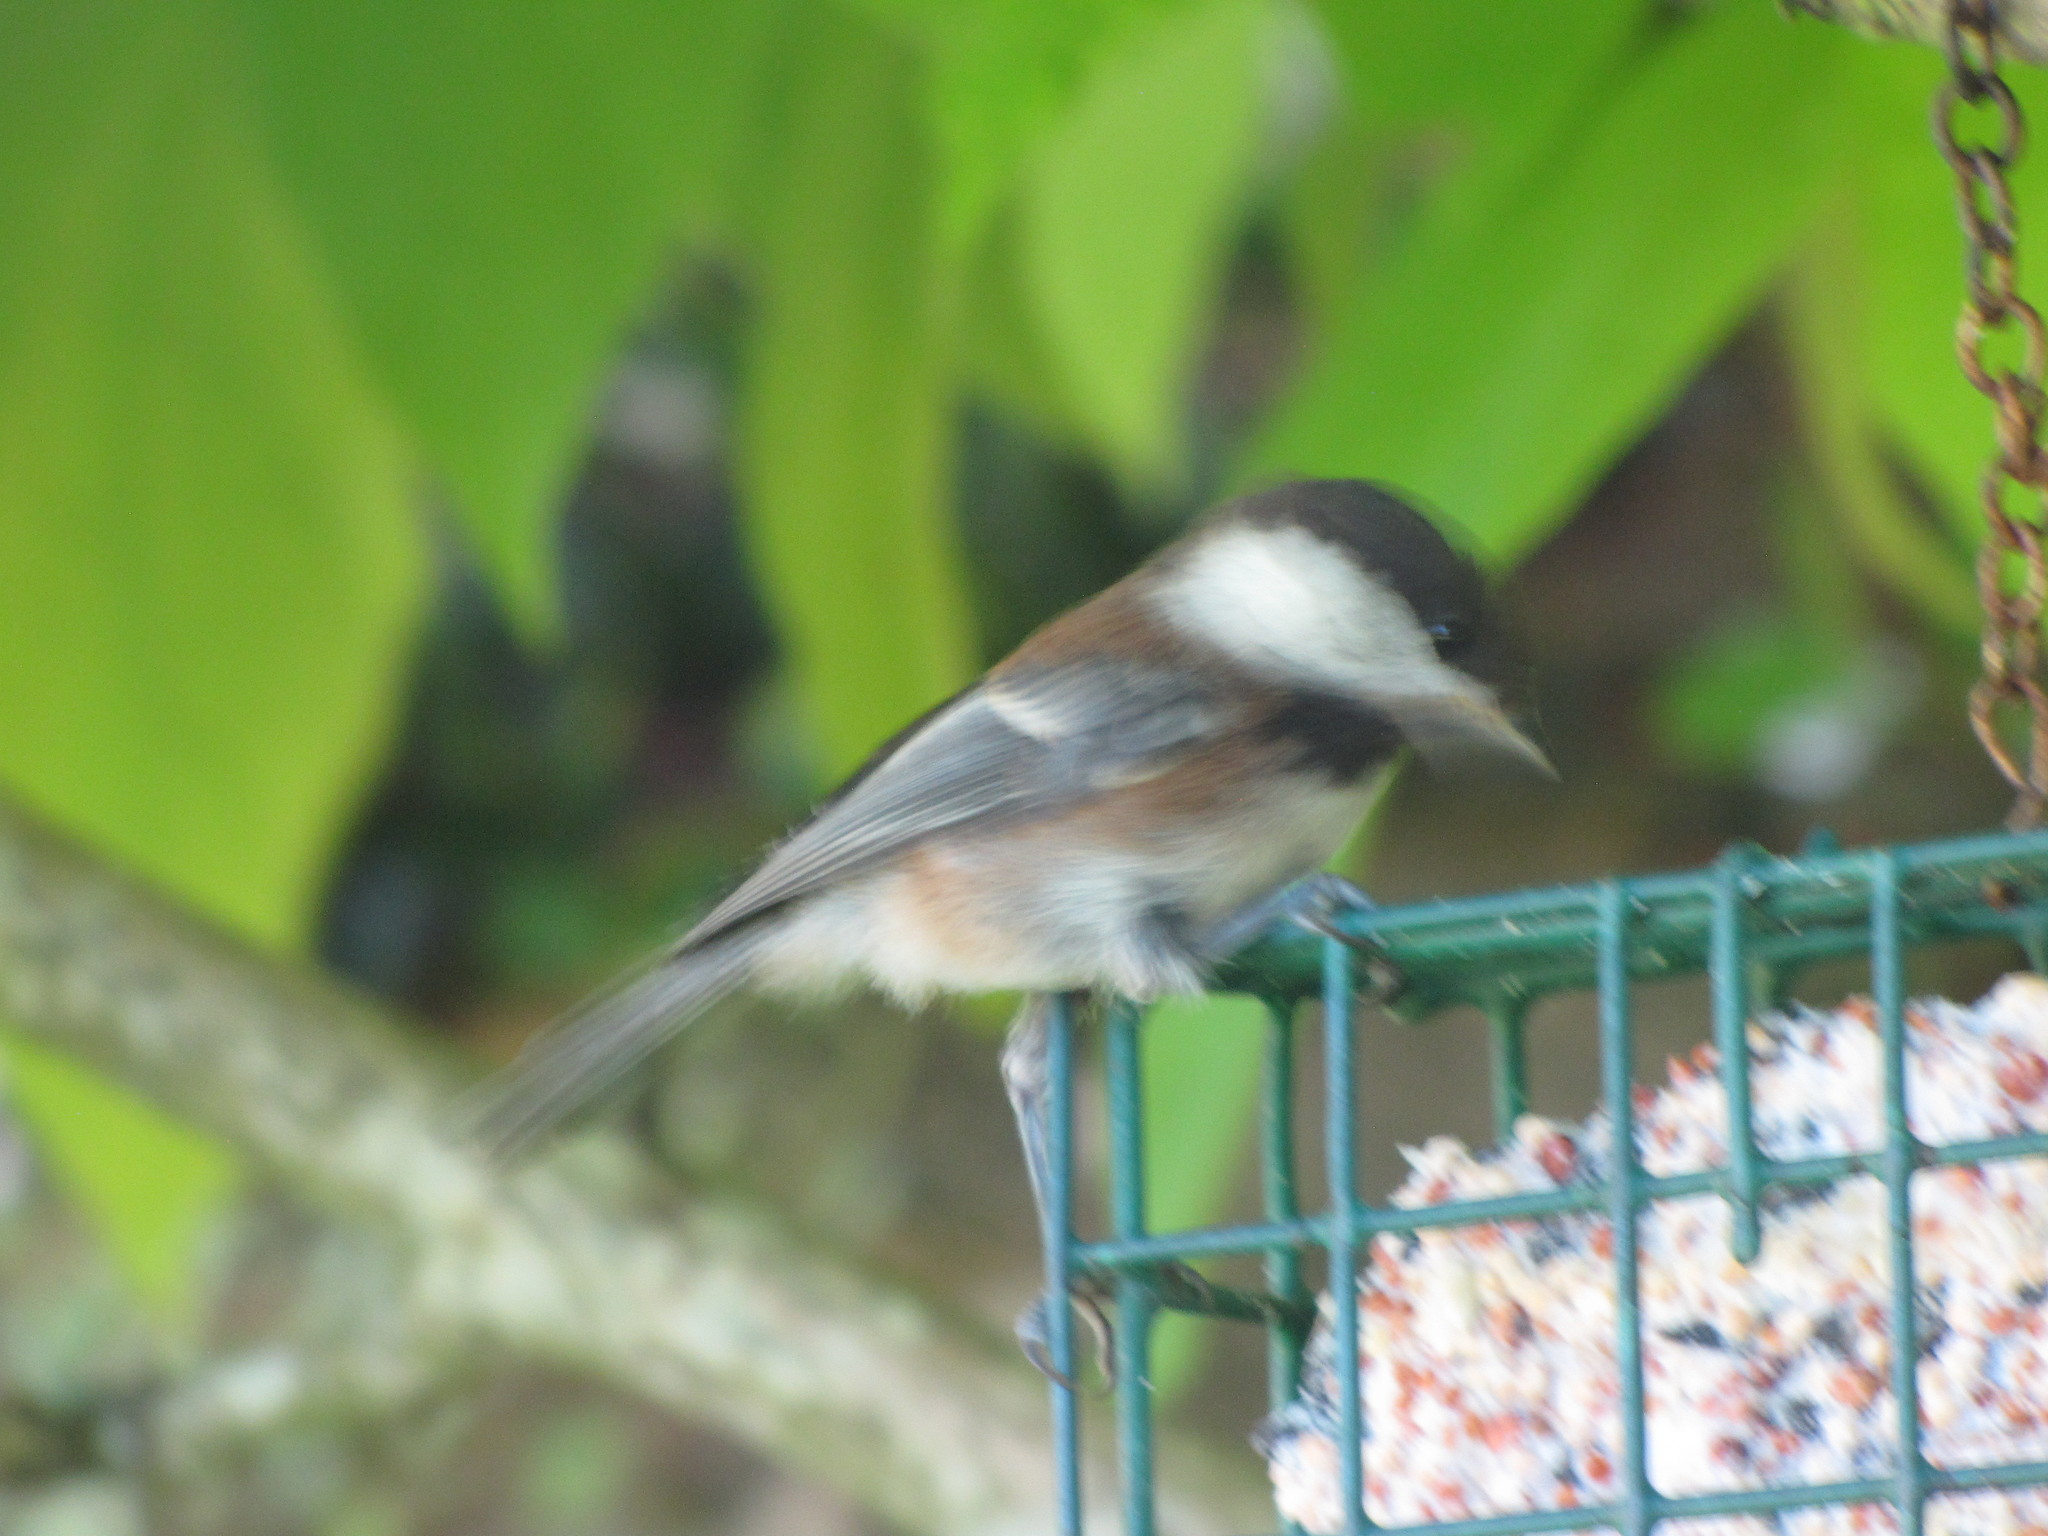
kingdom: Animalia
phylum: Chordata
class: Aves
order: Passeriformes
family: Paridae
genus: Poecile
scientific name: Poecile rufescens
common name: Chestnut-backed chickadee
